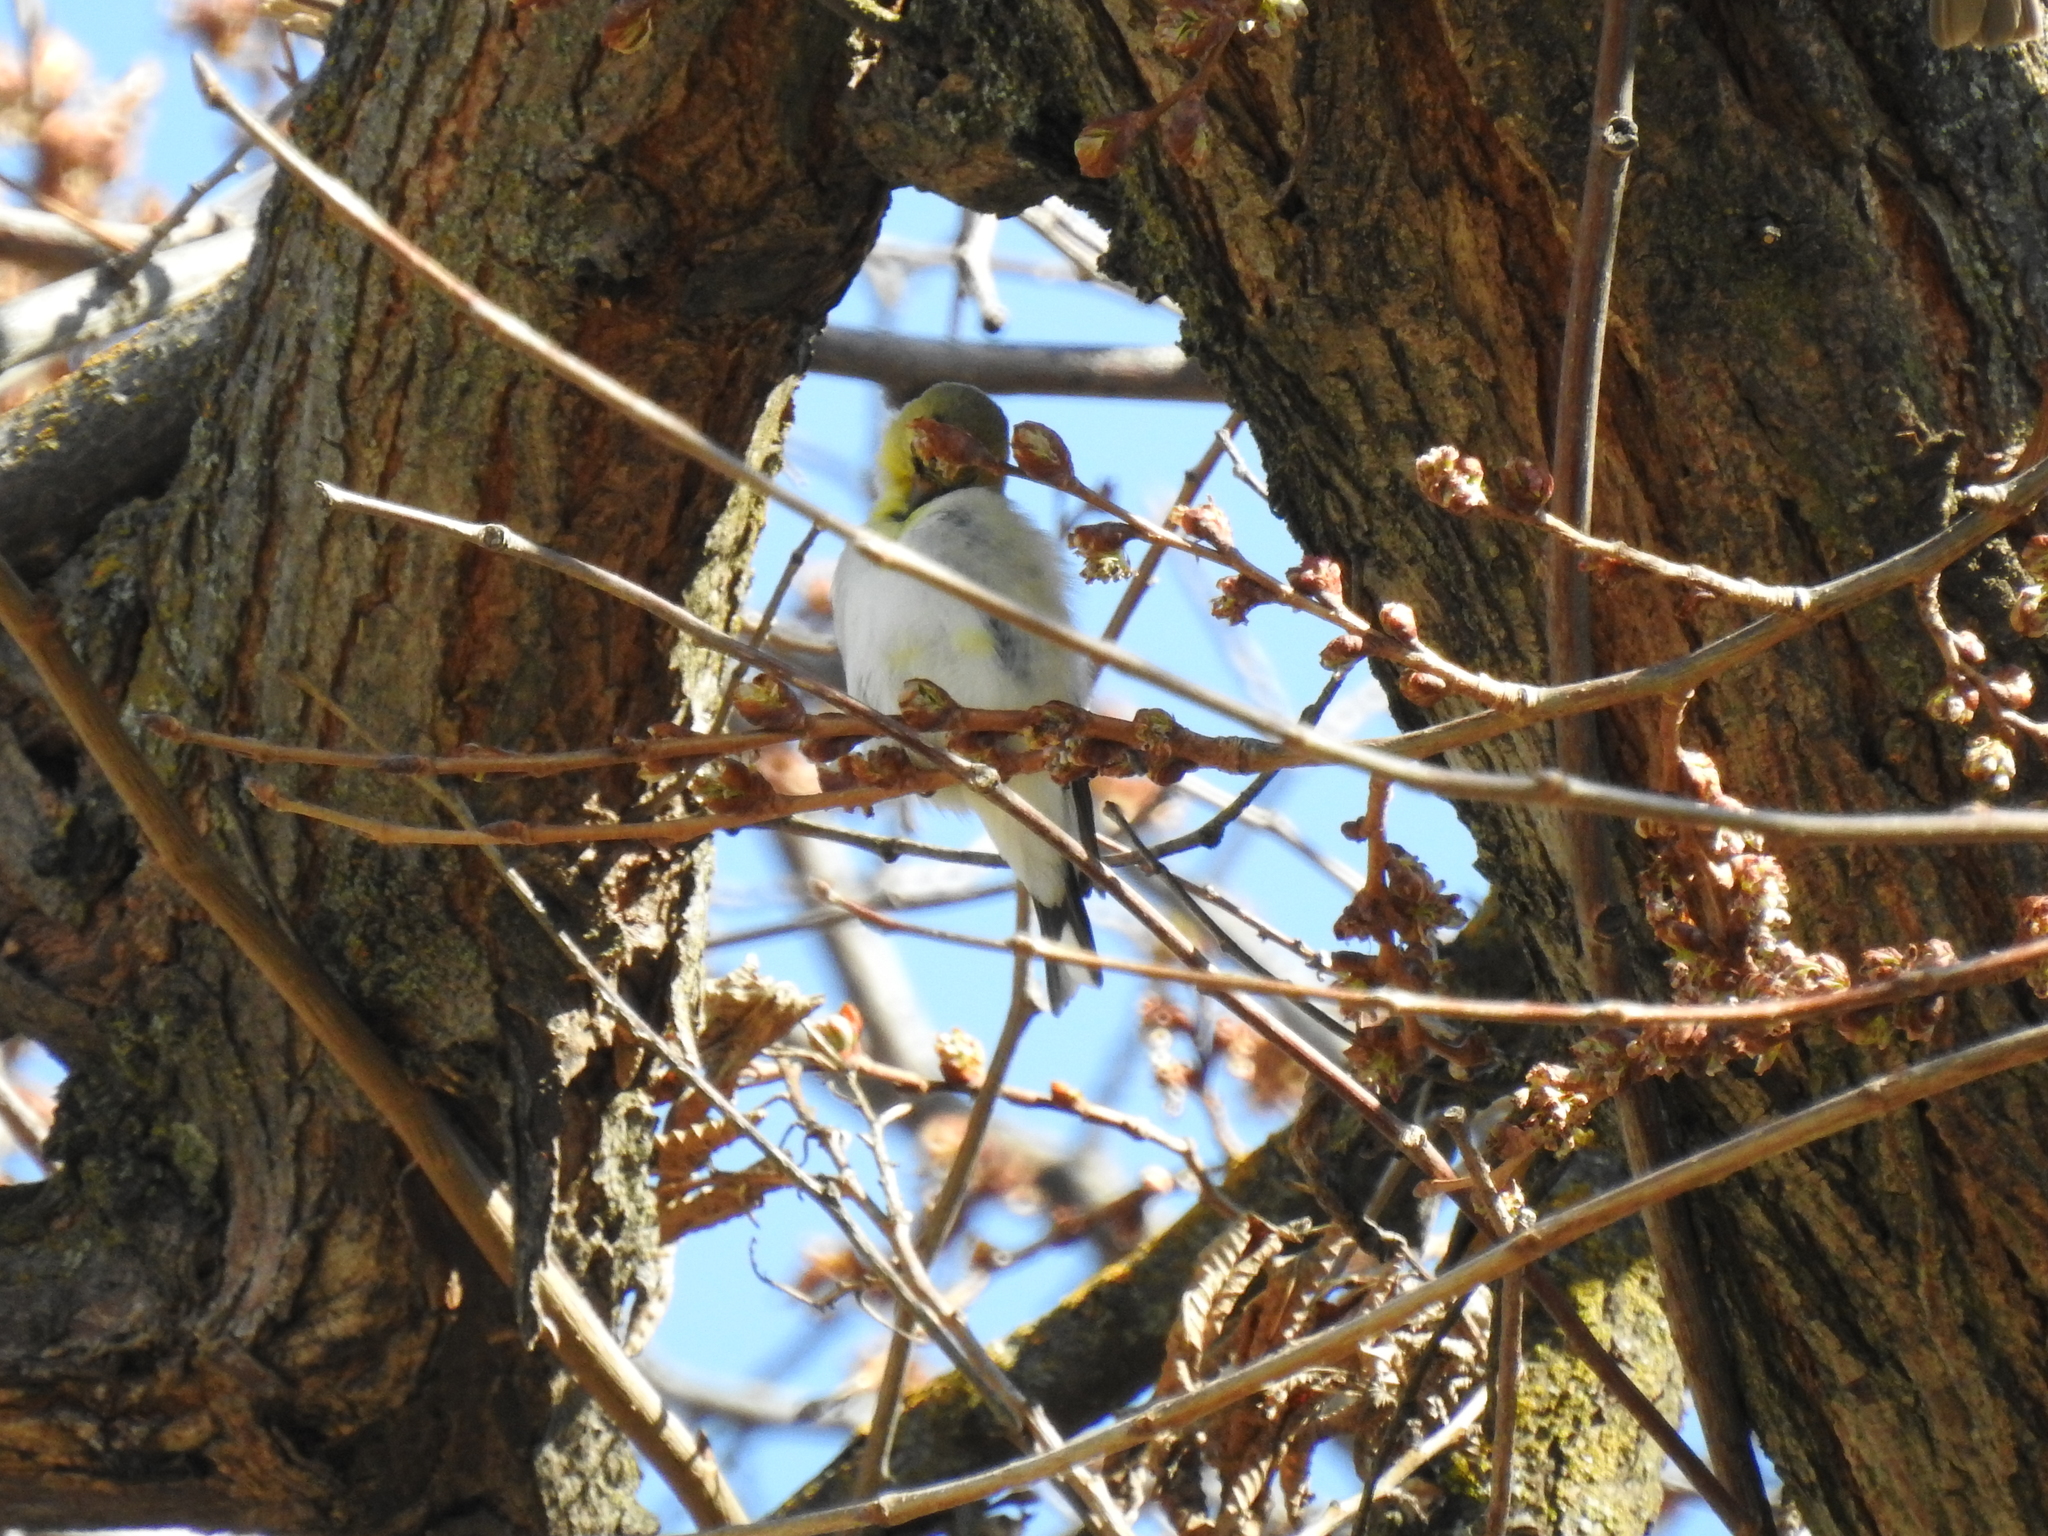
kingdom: Animalia
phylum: Chordata
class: Aves
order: Passeriformes
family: Fringillidae
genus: Spinus
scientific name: Spinus tristis
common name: American goldfinch
